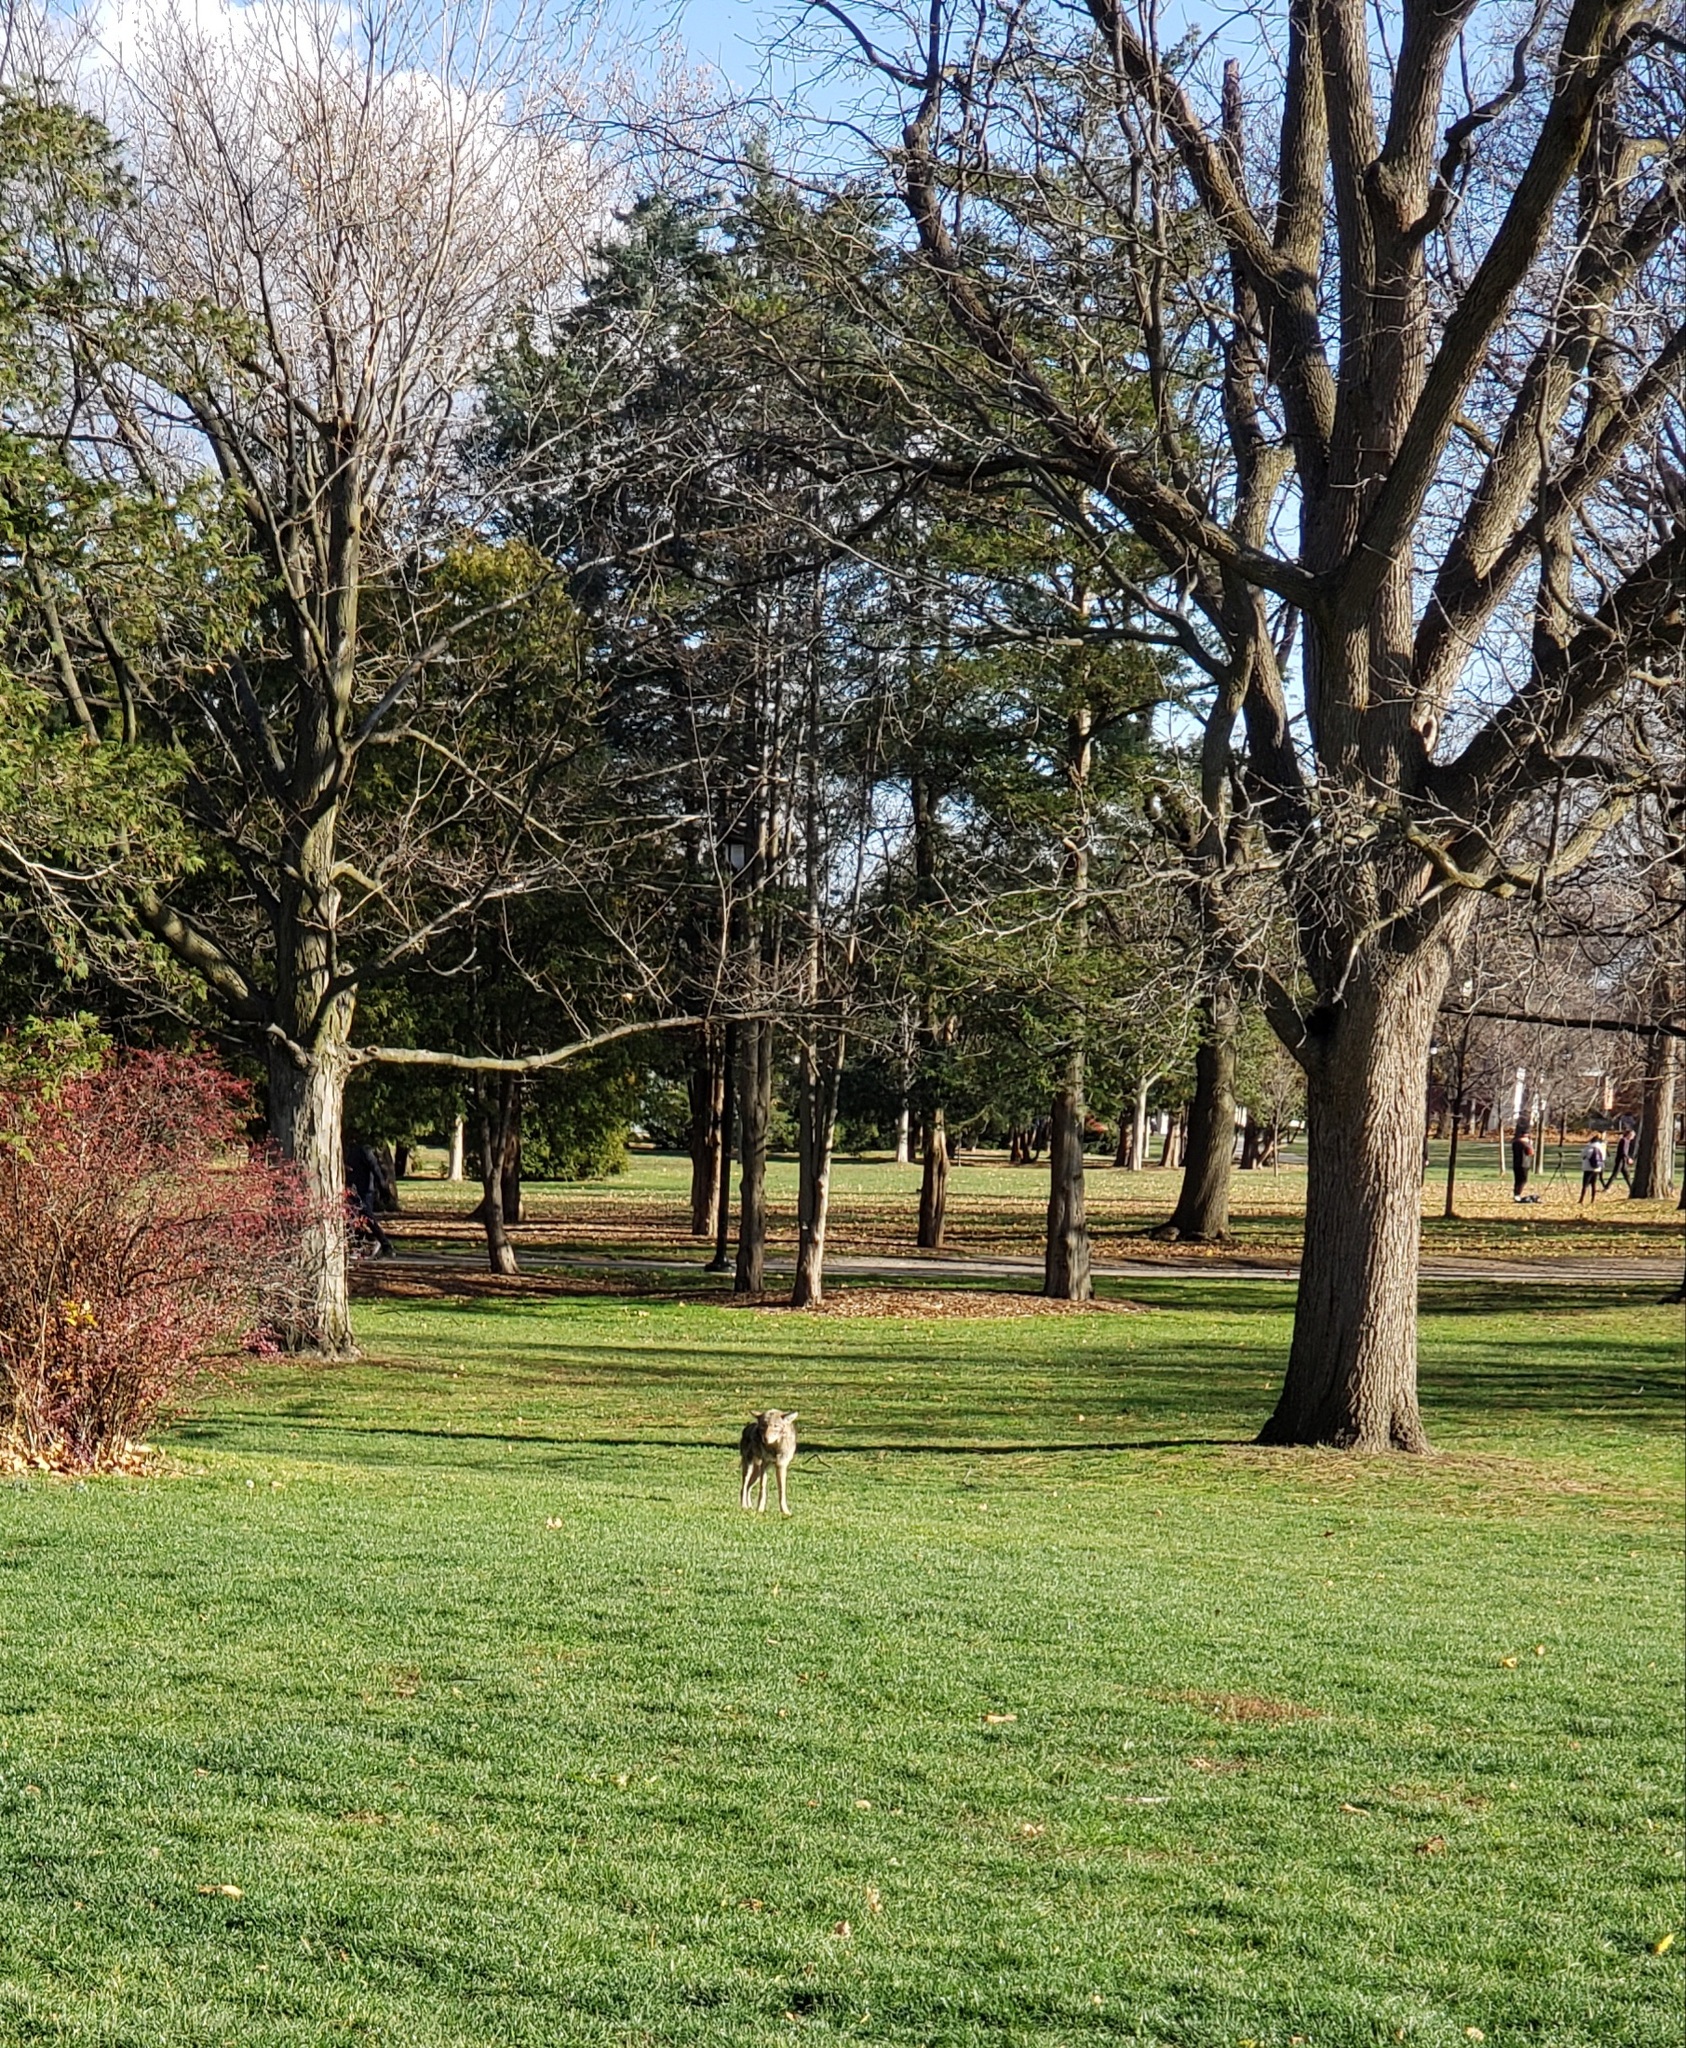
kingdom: Animalia
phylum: Chordata
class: Mammalia
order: Carnivora
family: Canidae
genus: Canis
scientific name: Canis latrans
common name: Coyote
